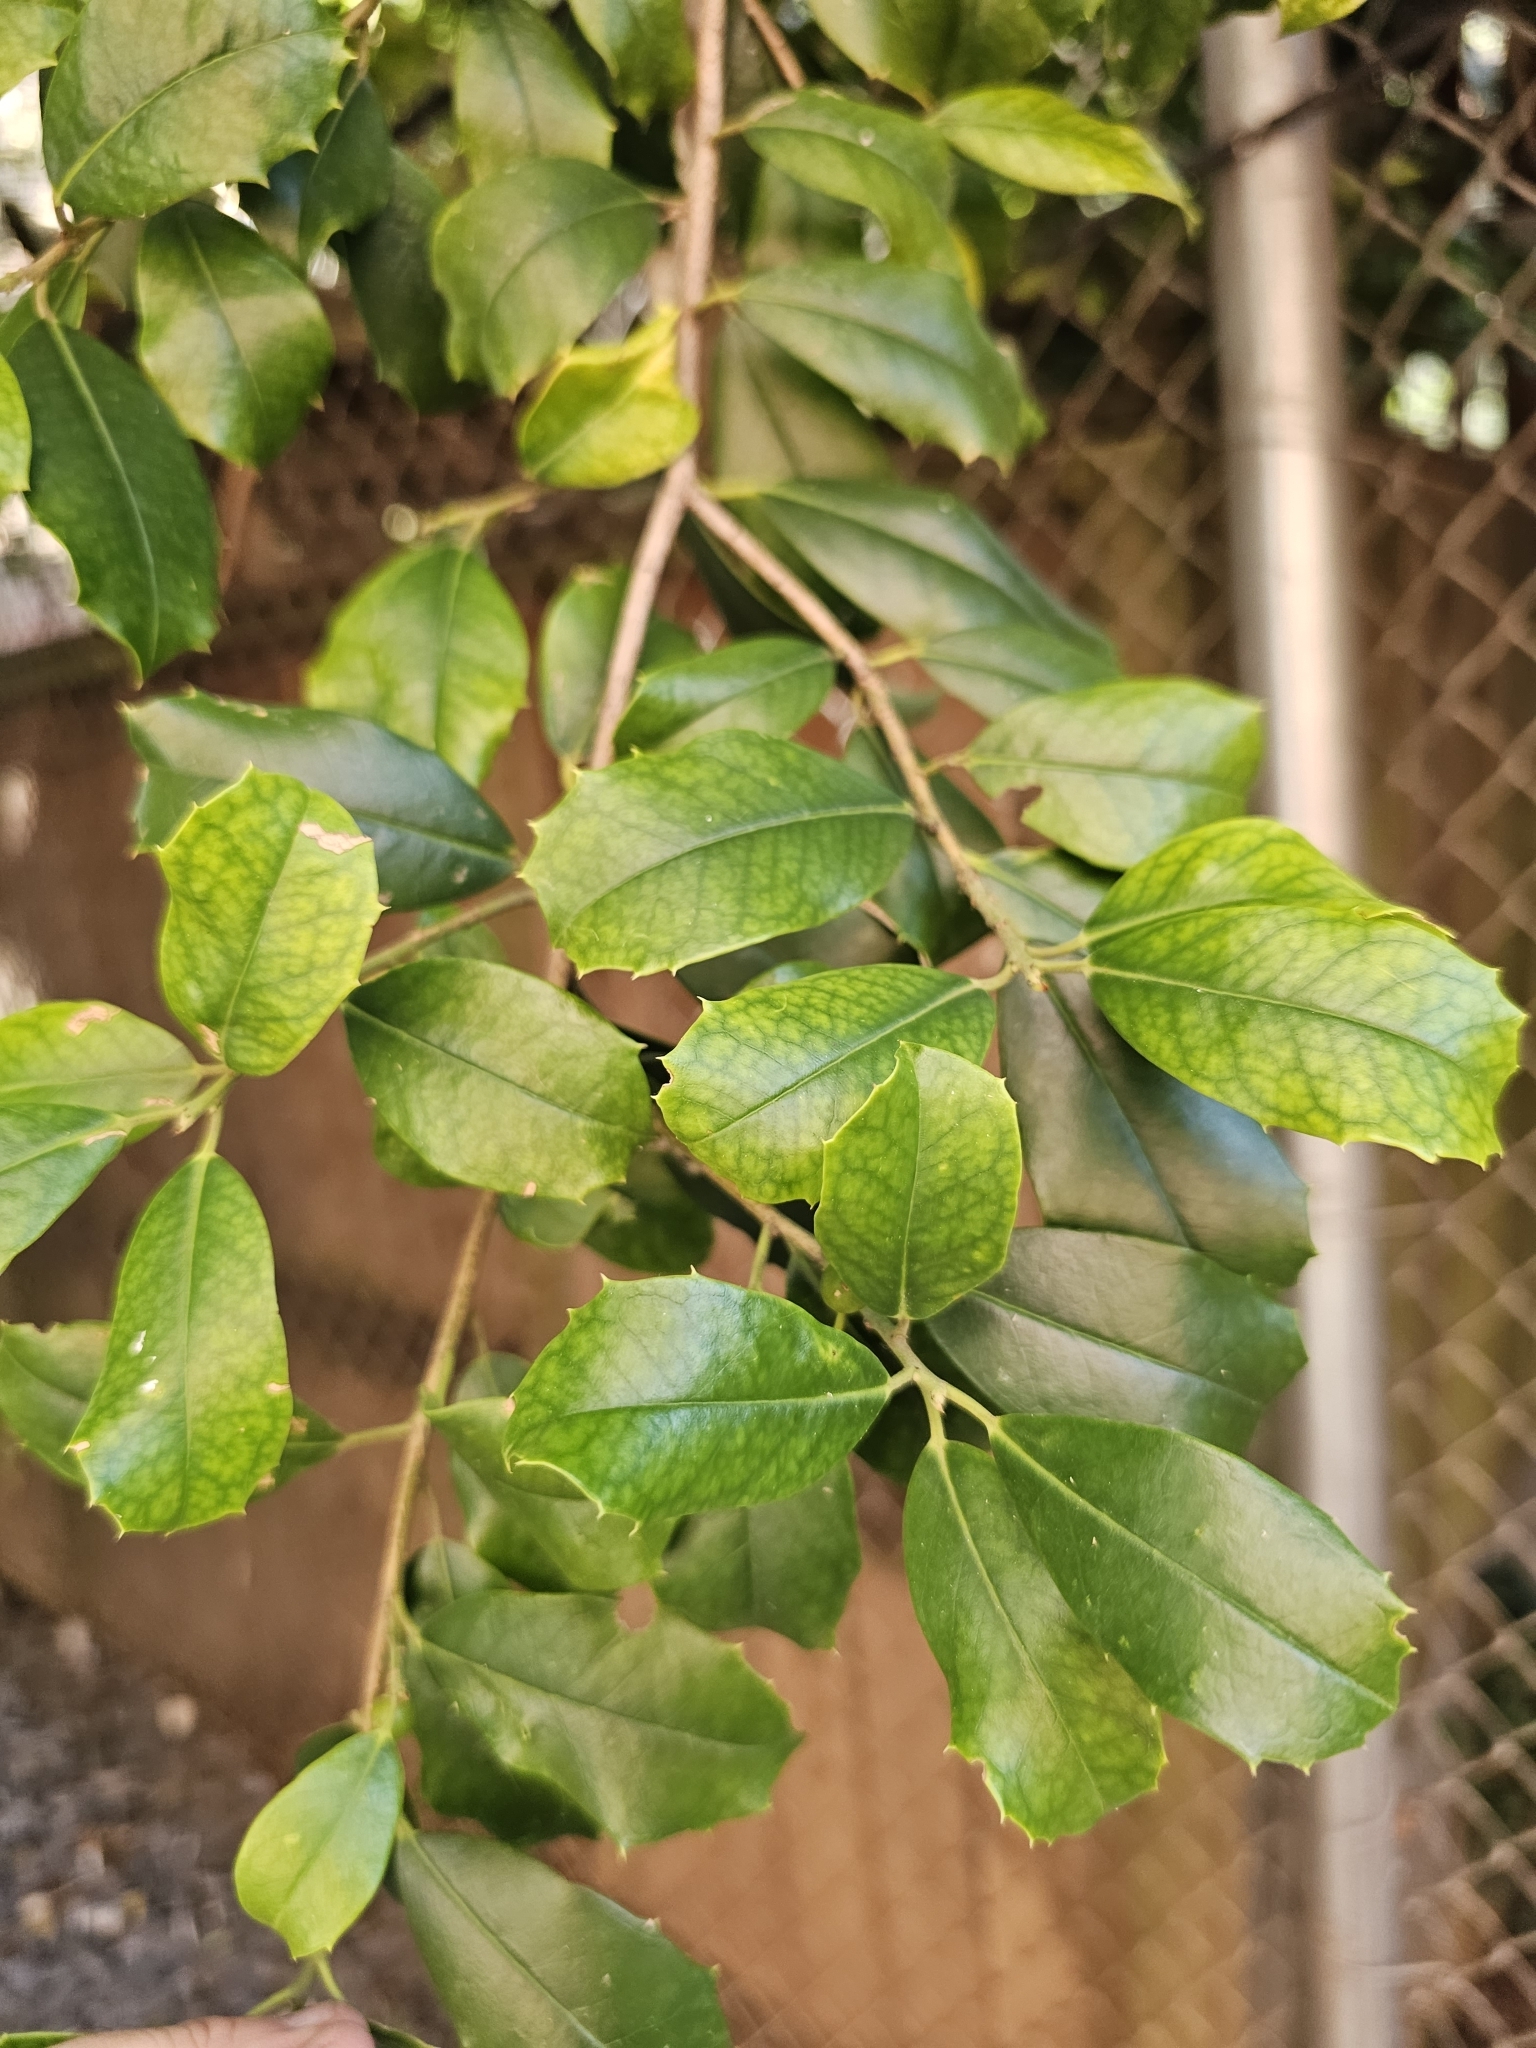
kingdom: Plantae
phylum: Tracheophyta
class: Magnoliopsida
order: Aquifoliales
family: Aquifoliaceae
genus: Ilex
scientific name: Ilex opaca
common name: American holly
